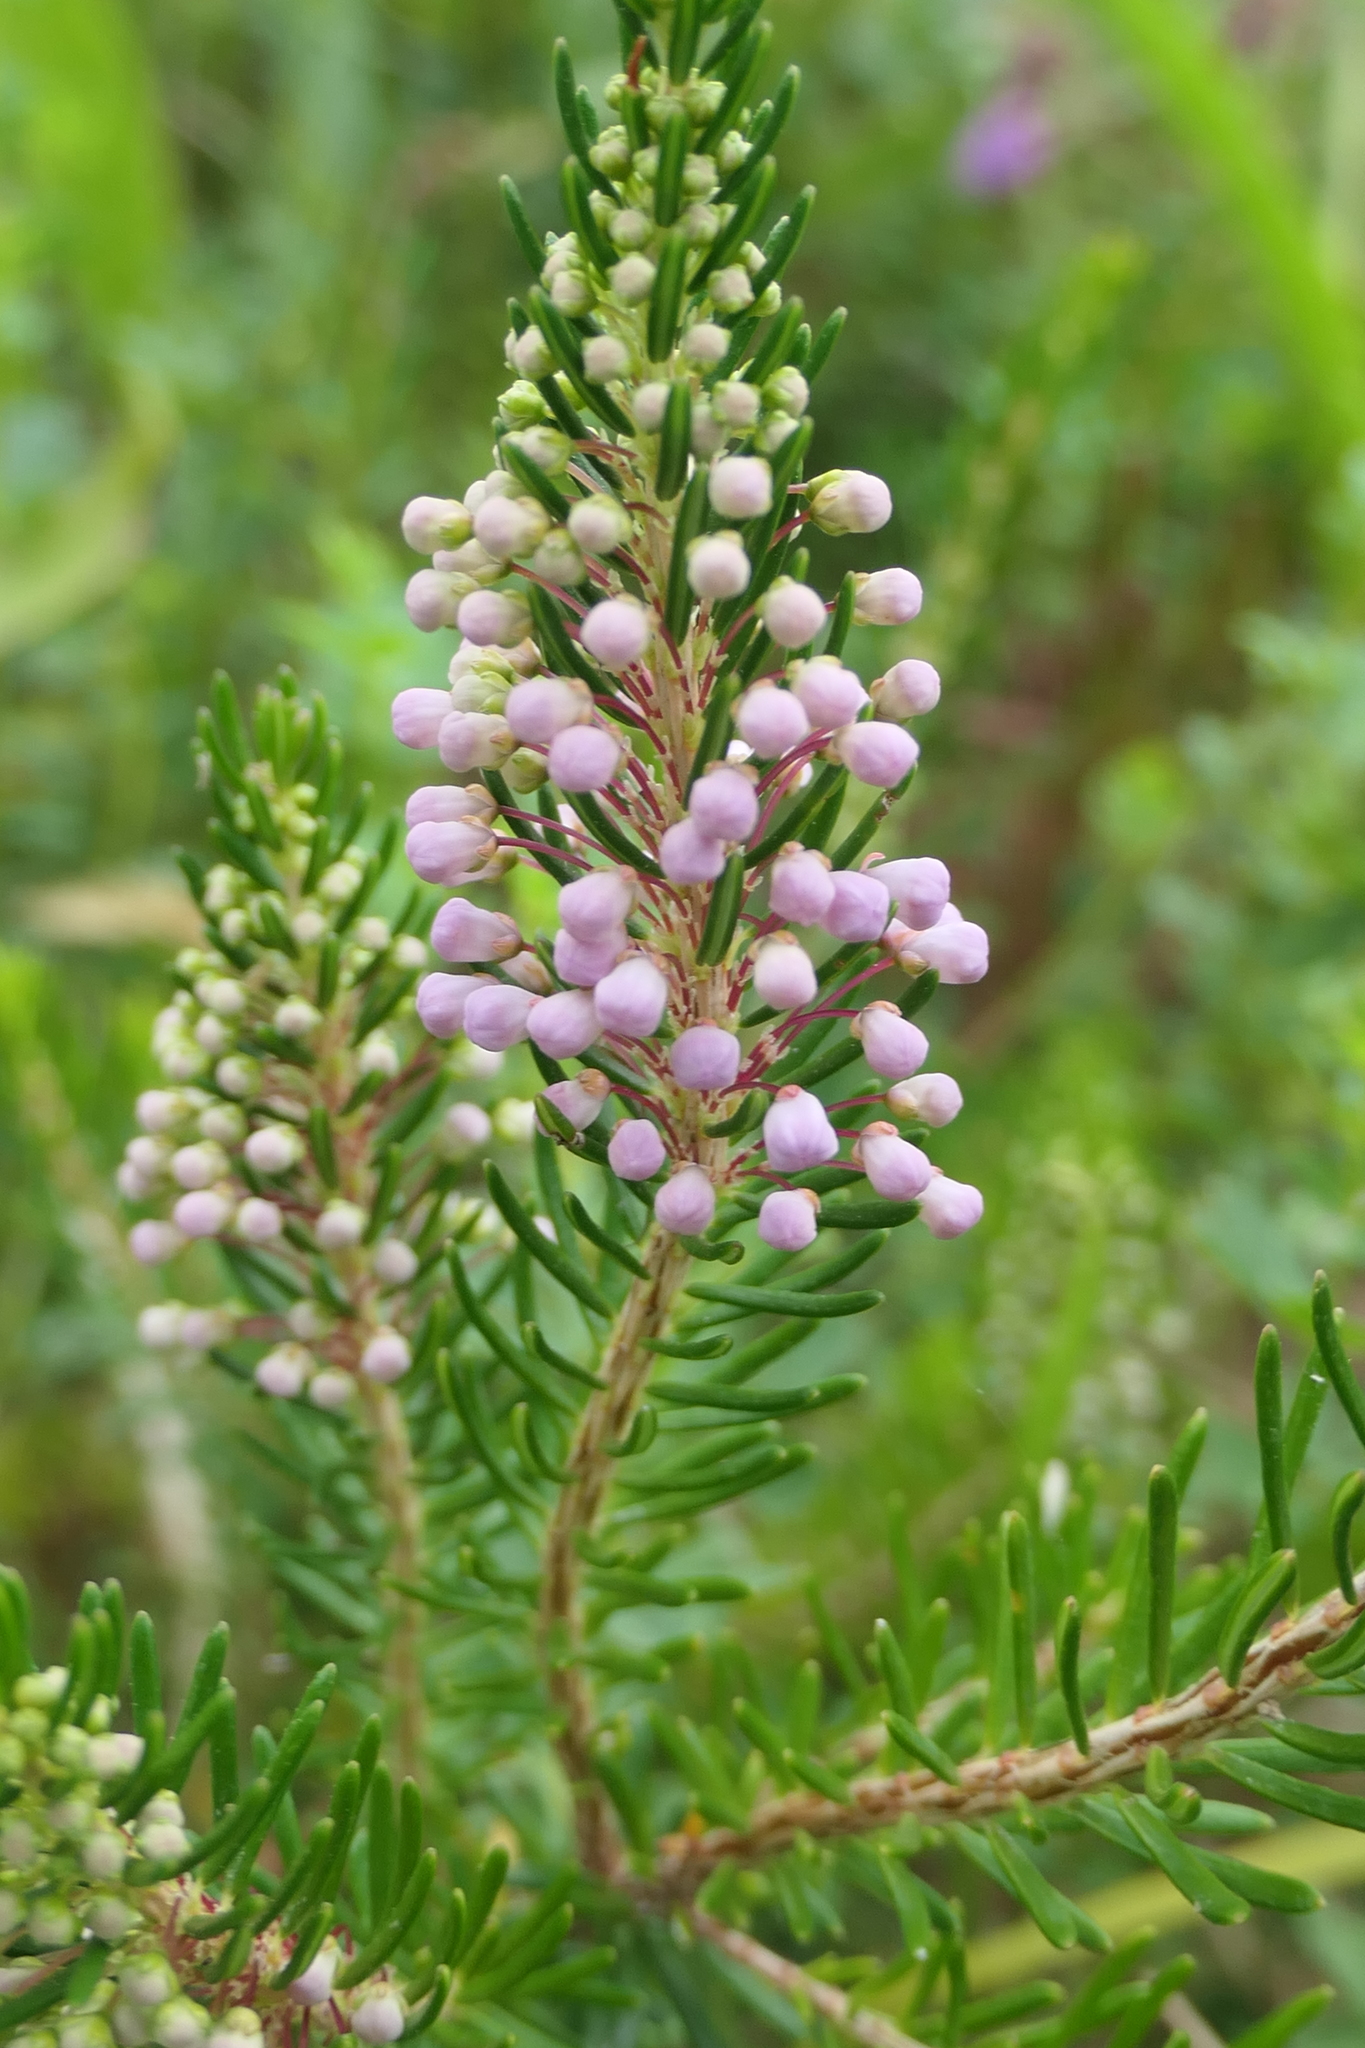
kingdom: Plantae
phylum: Tracheophyta
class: Magnoliopsida
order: Ericales
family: Ericaceae
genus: Erica
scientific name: Erica vagans
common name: Cornish heath
